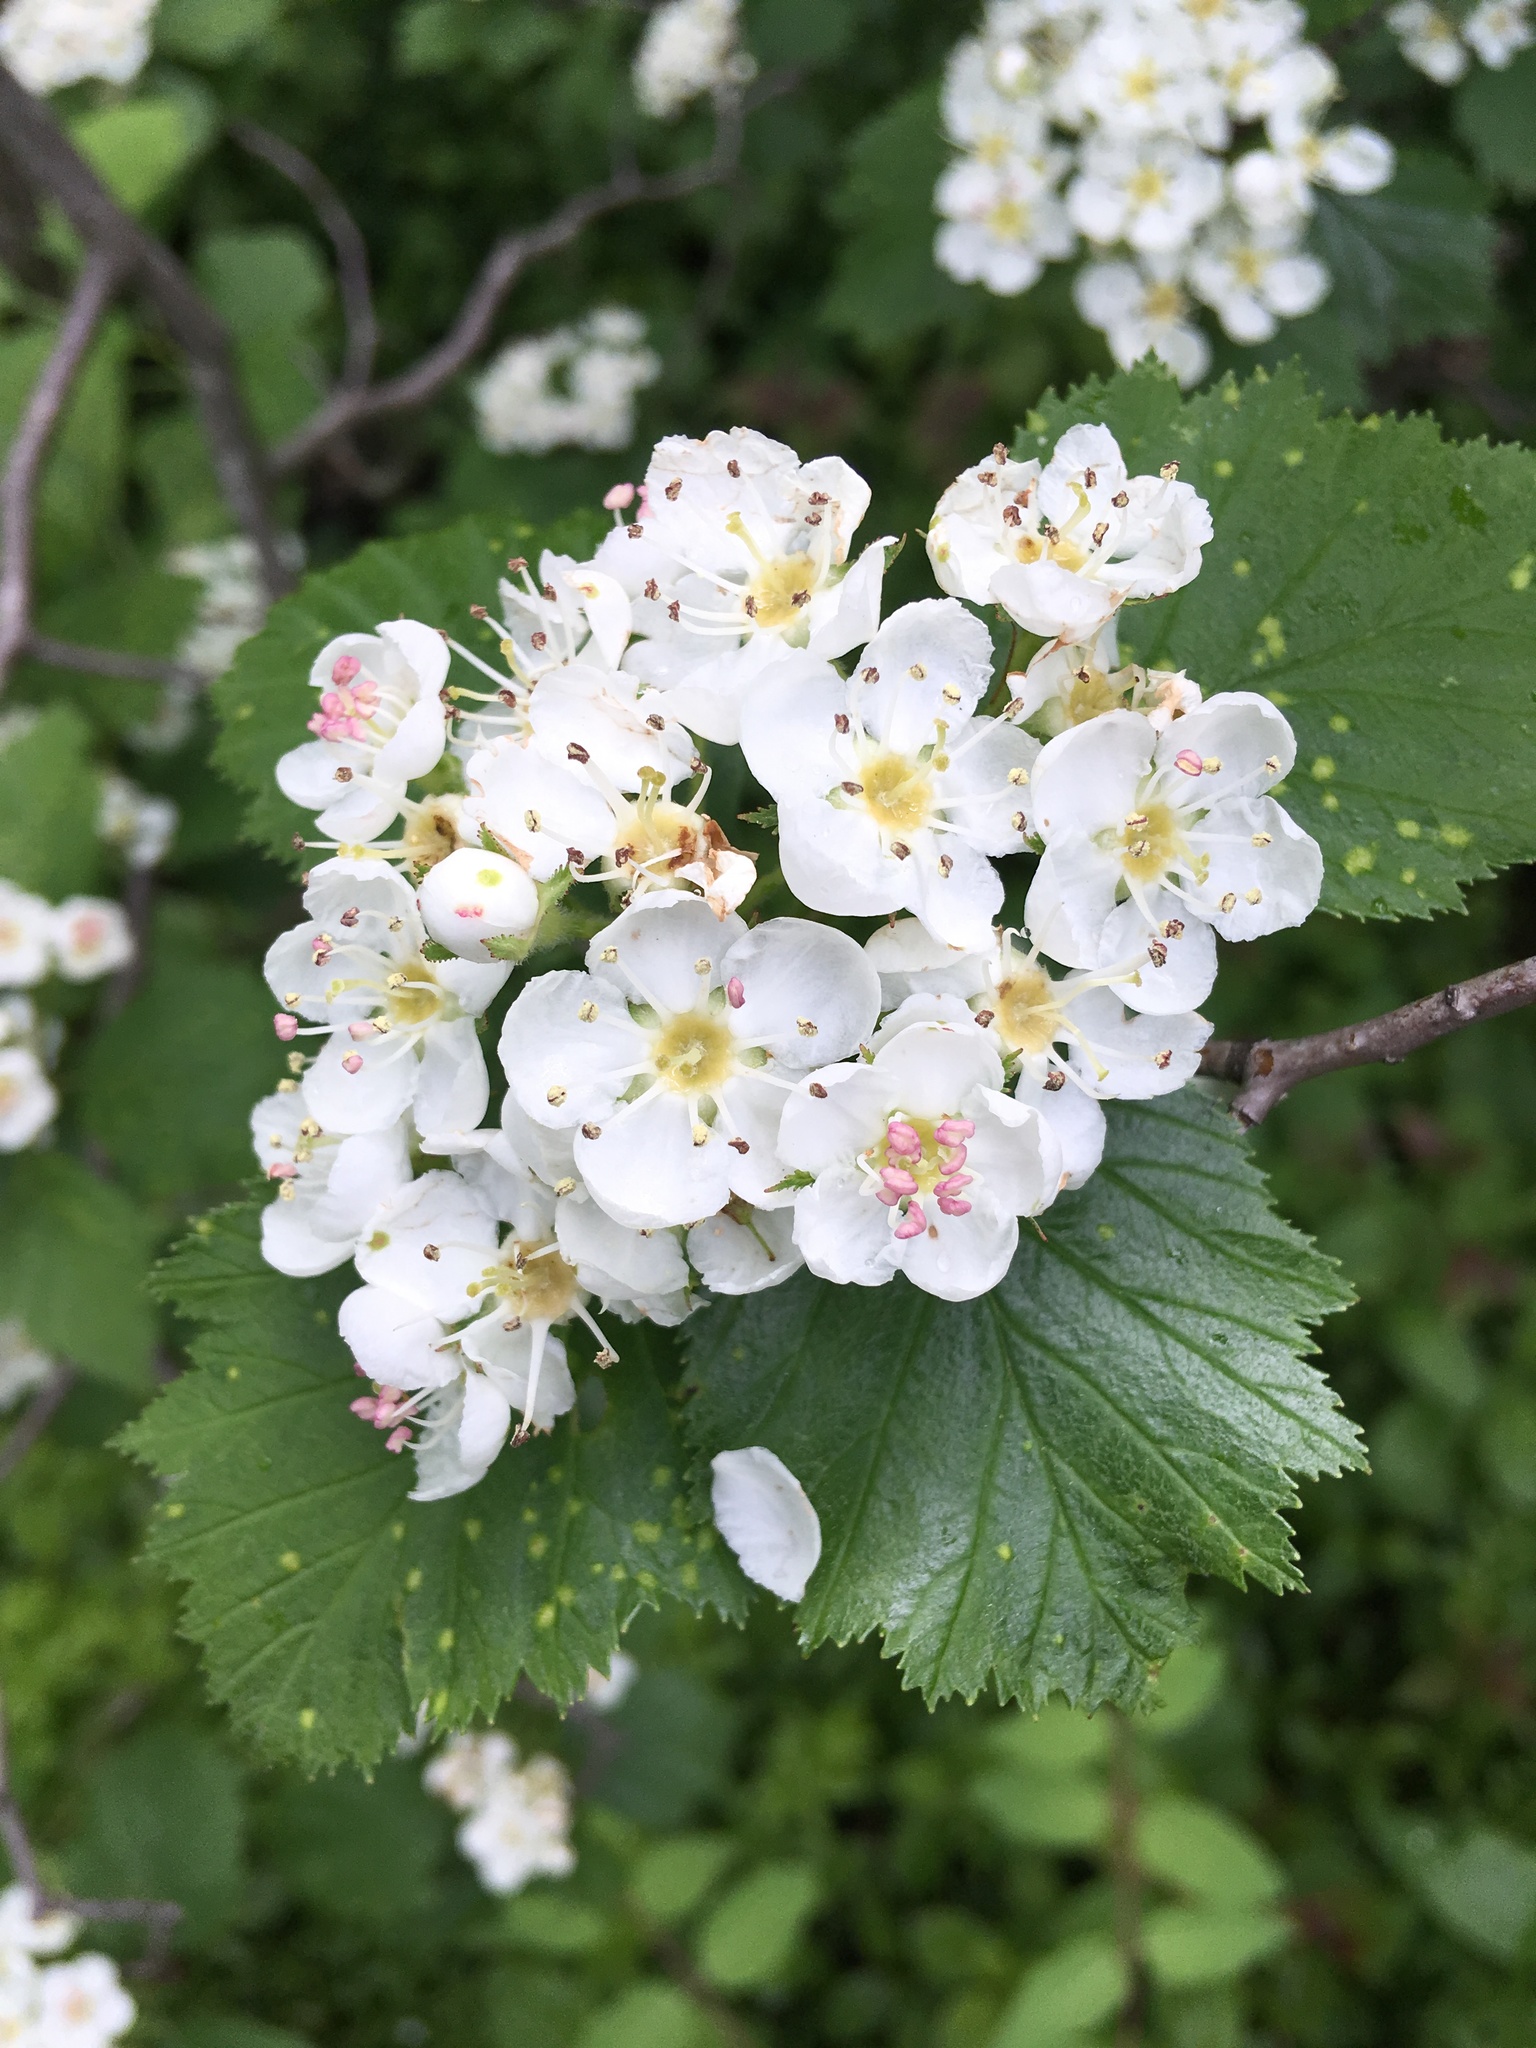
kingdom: Plantae
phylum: Tracheophyta
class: Magnoliopsida
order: Rosales
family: Rosaceae
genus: Crataegus
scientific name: Crataegus macracantha
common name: Large-thorn hawthorn
